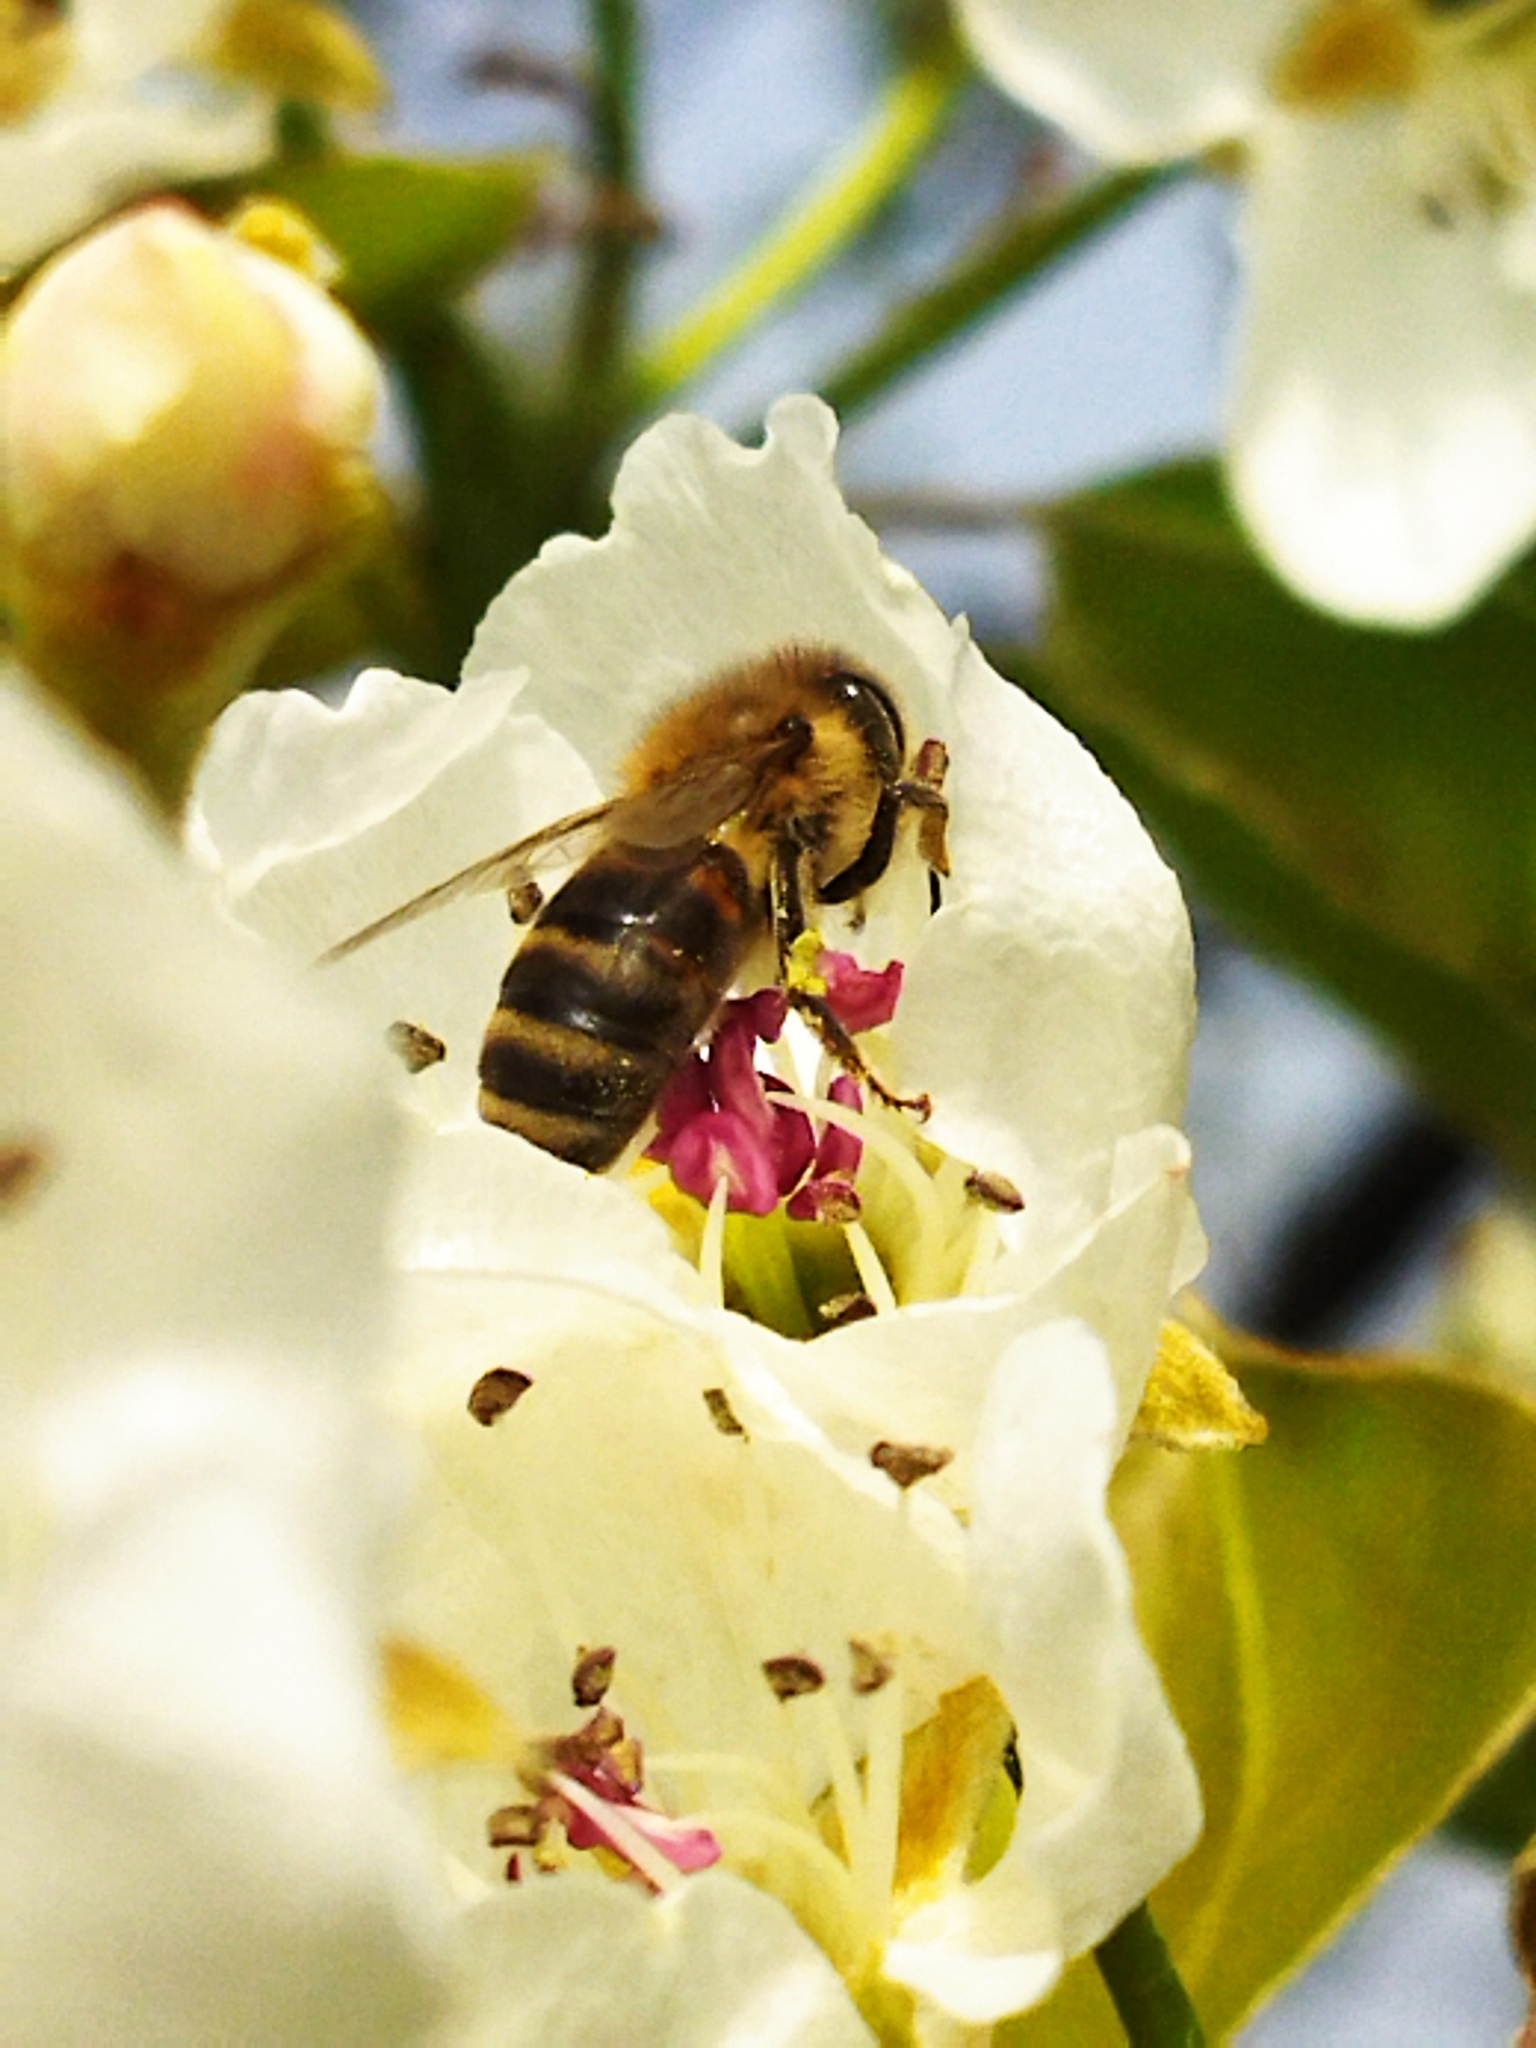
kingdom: Animalia
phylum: Arthropoda
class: Insecta
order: Hymenoptera
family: Apidae
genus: Apis
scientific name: Apis mellifera
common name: Honey bee
